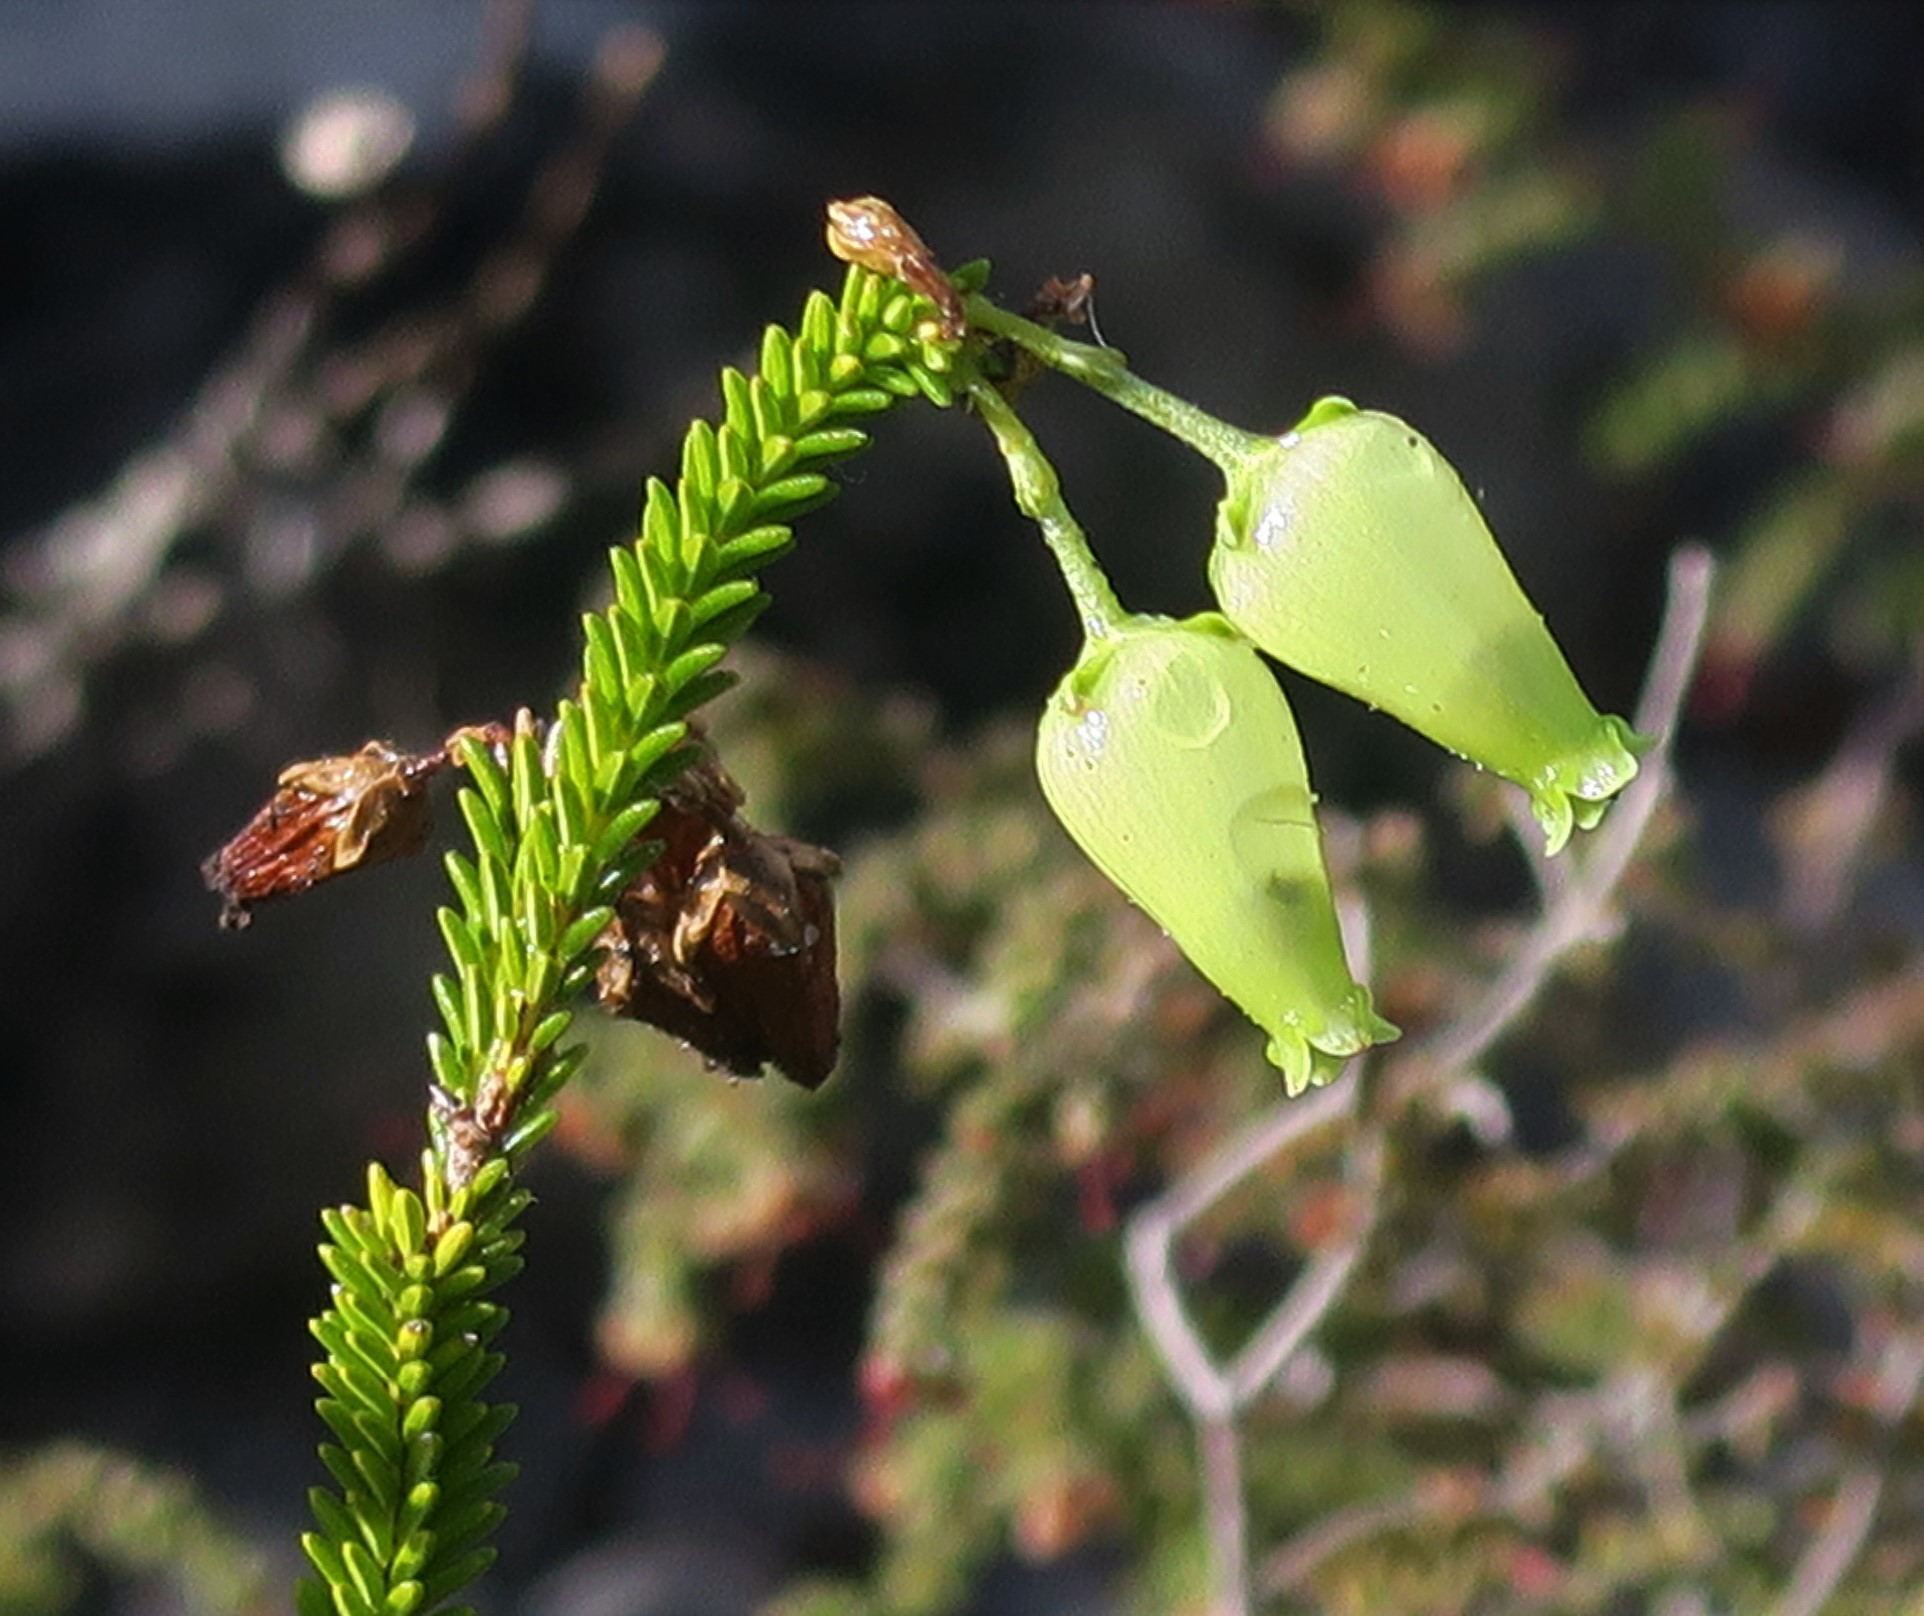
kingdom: Plantae
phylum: Tracheophyta
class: Magnoliopsida
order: Ericales
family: Ericaceae
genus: Erica
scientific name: Erica urna-viridis
